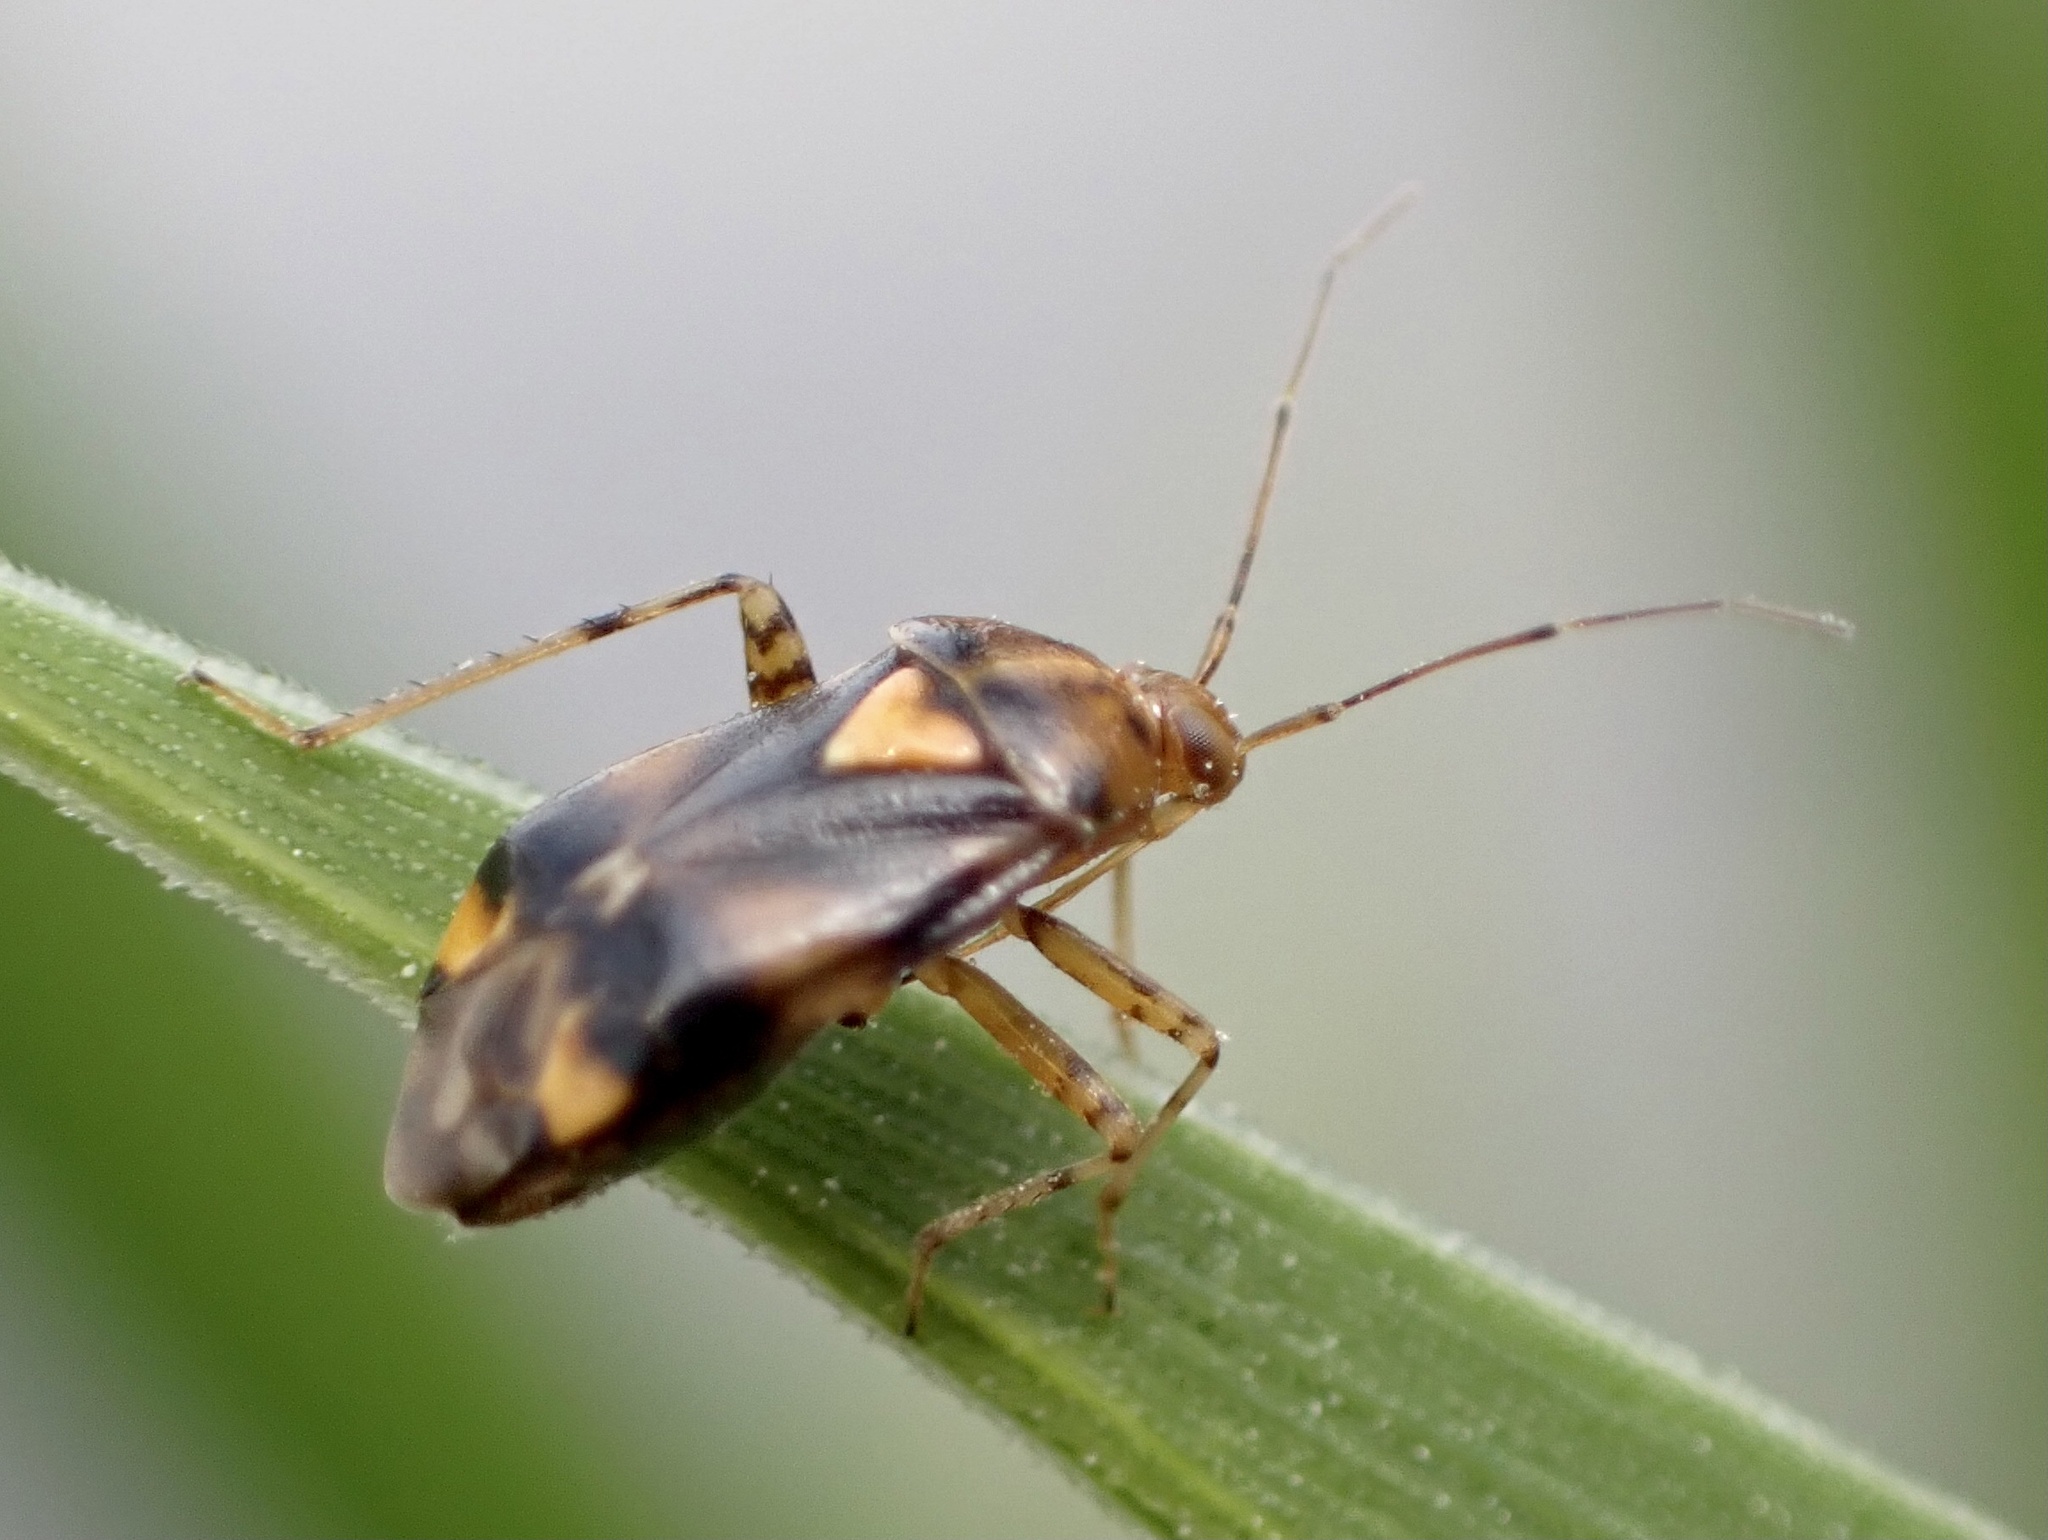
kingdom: Animalia
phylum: Arthropoda
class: Insecta
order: Hemiptera
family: Miridae
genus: Liocoris
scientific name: Liocoris tripustulatus
